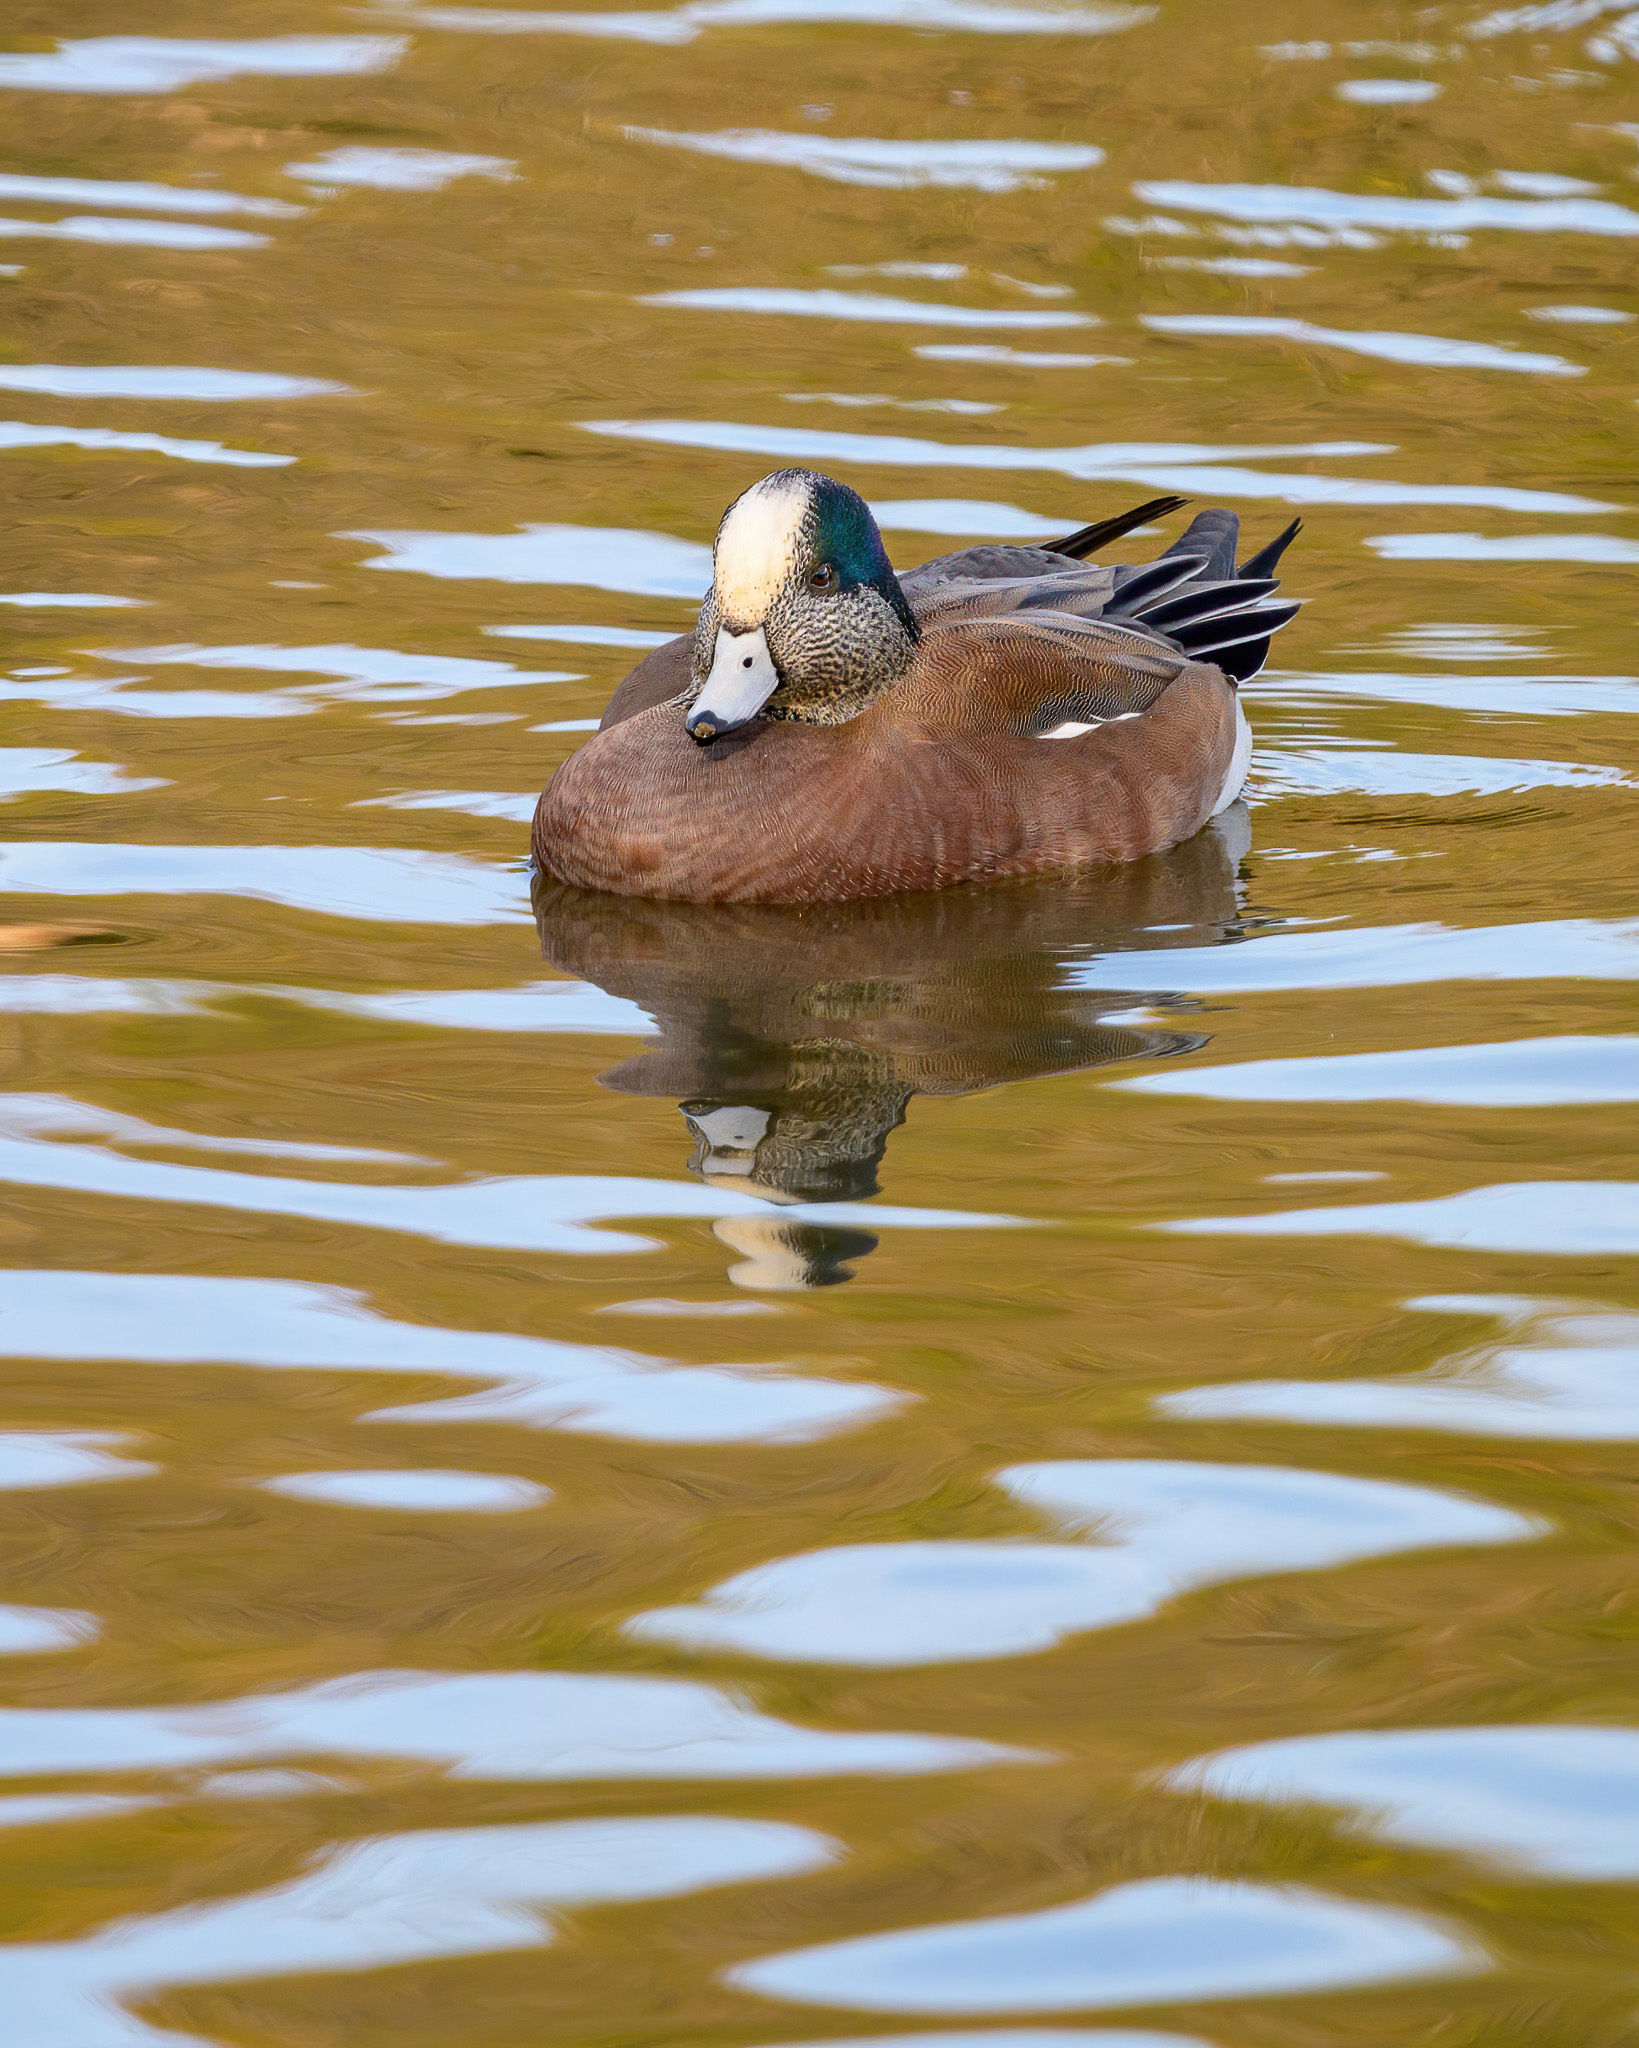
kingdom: Animalia
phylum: Chordata
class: Aves
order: Anseriformes
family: Anatidae
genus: Mareca
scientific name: Mareca americana
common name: American wigeon
